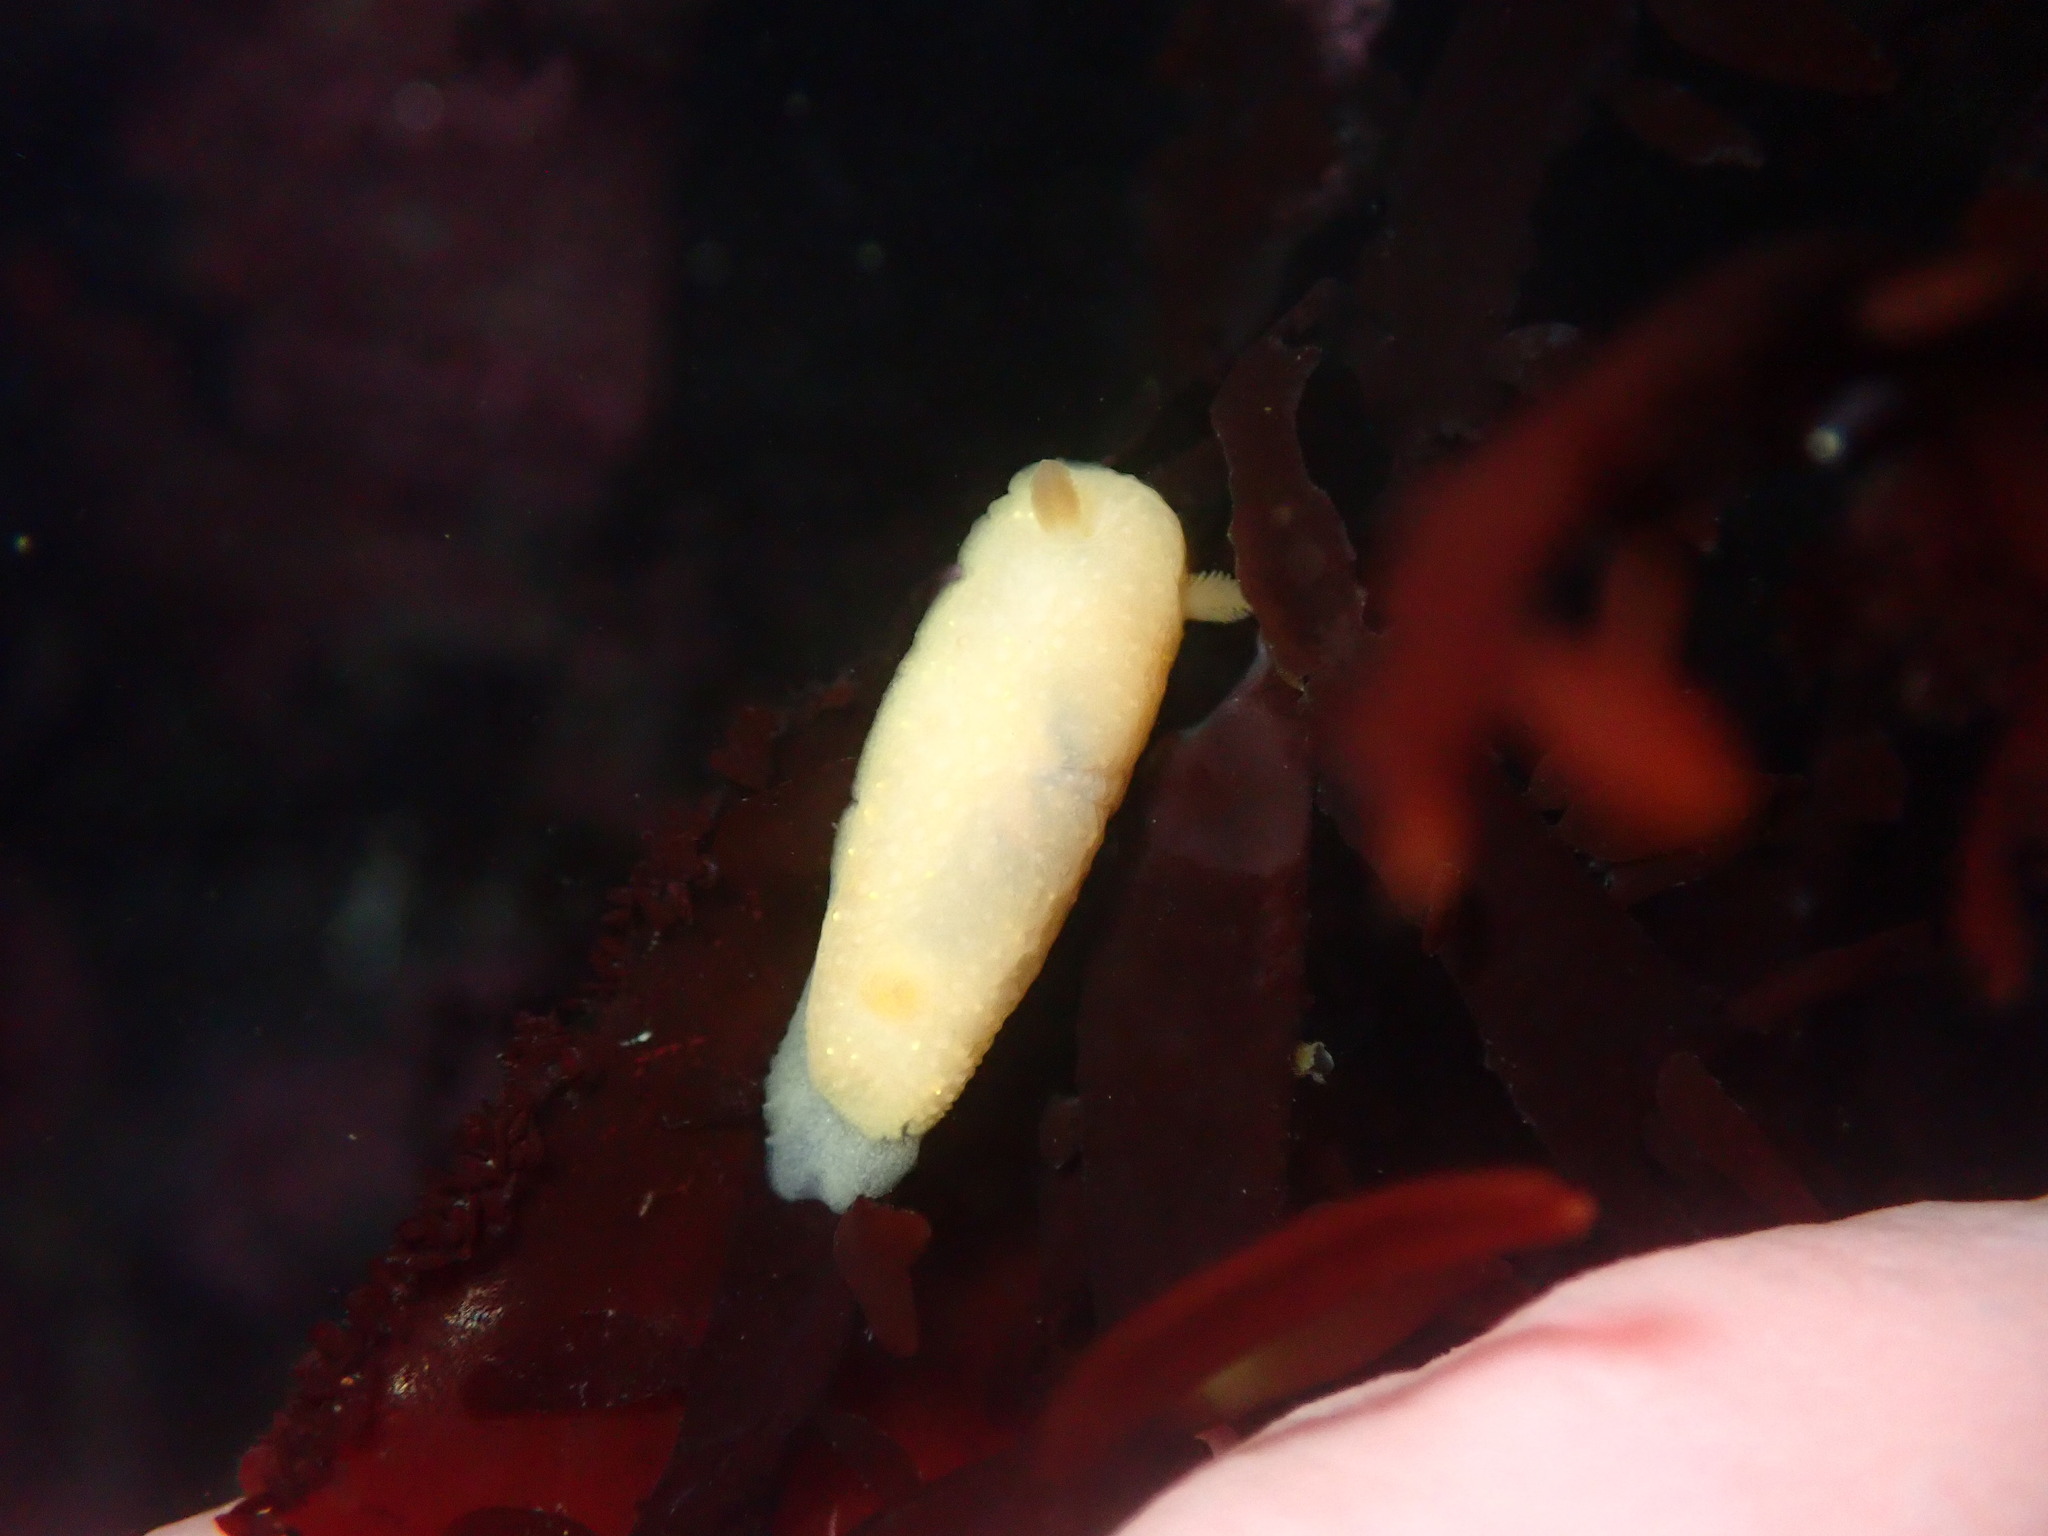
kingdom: Animalia
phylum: Mollusca
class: Gastropoda
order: Nudibranchia
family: Cadlinidae
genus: Cadlina
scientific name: Cadlina modesta
